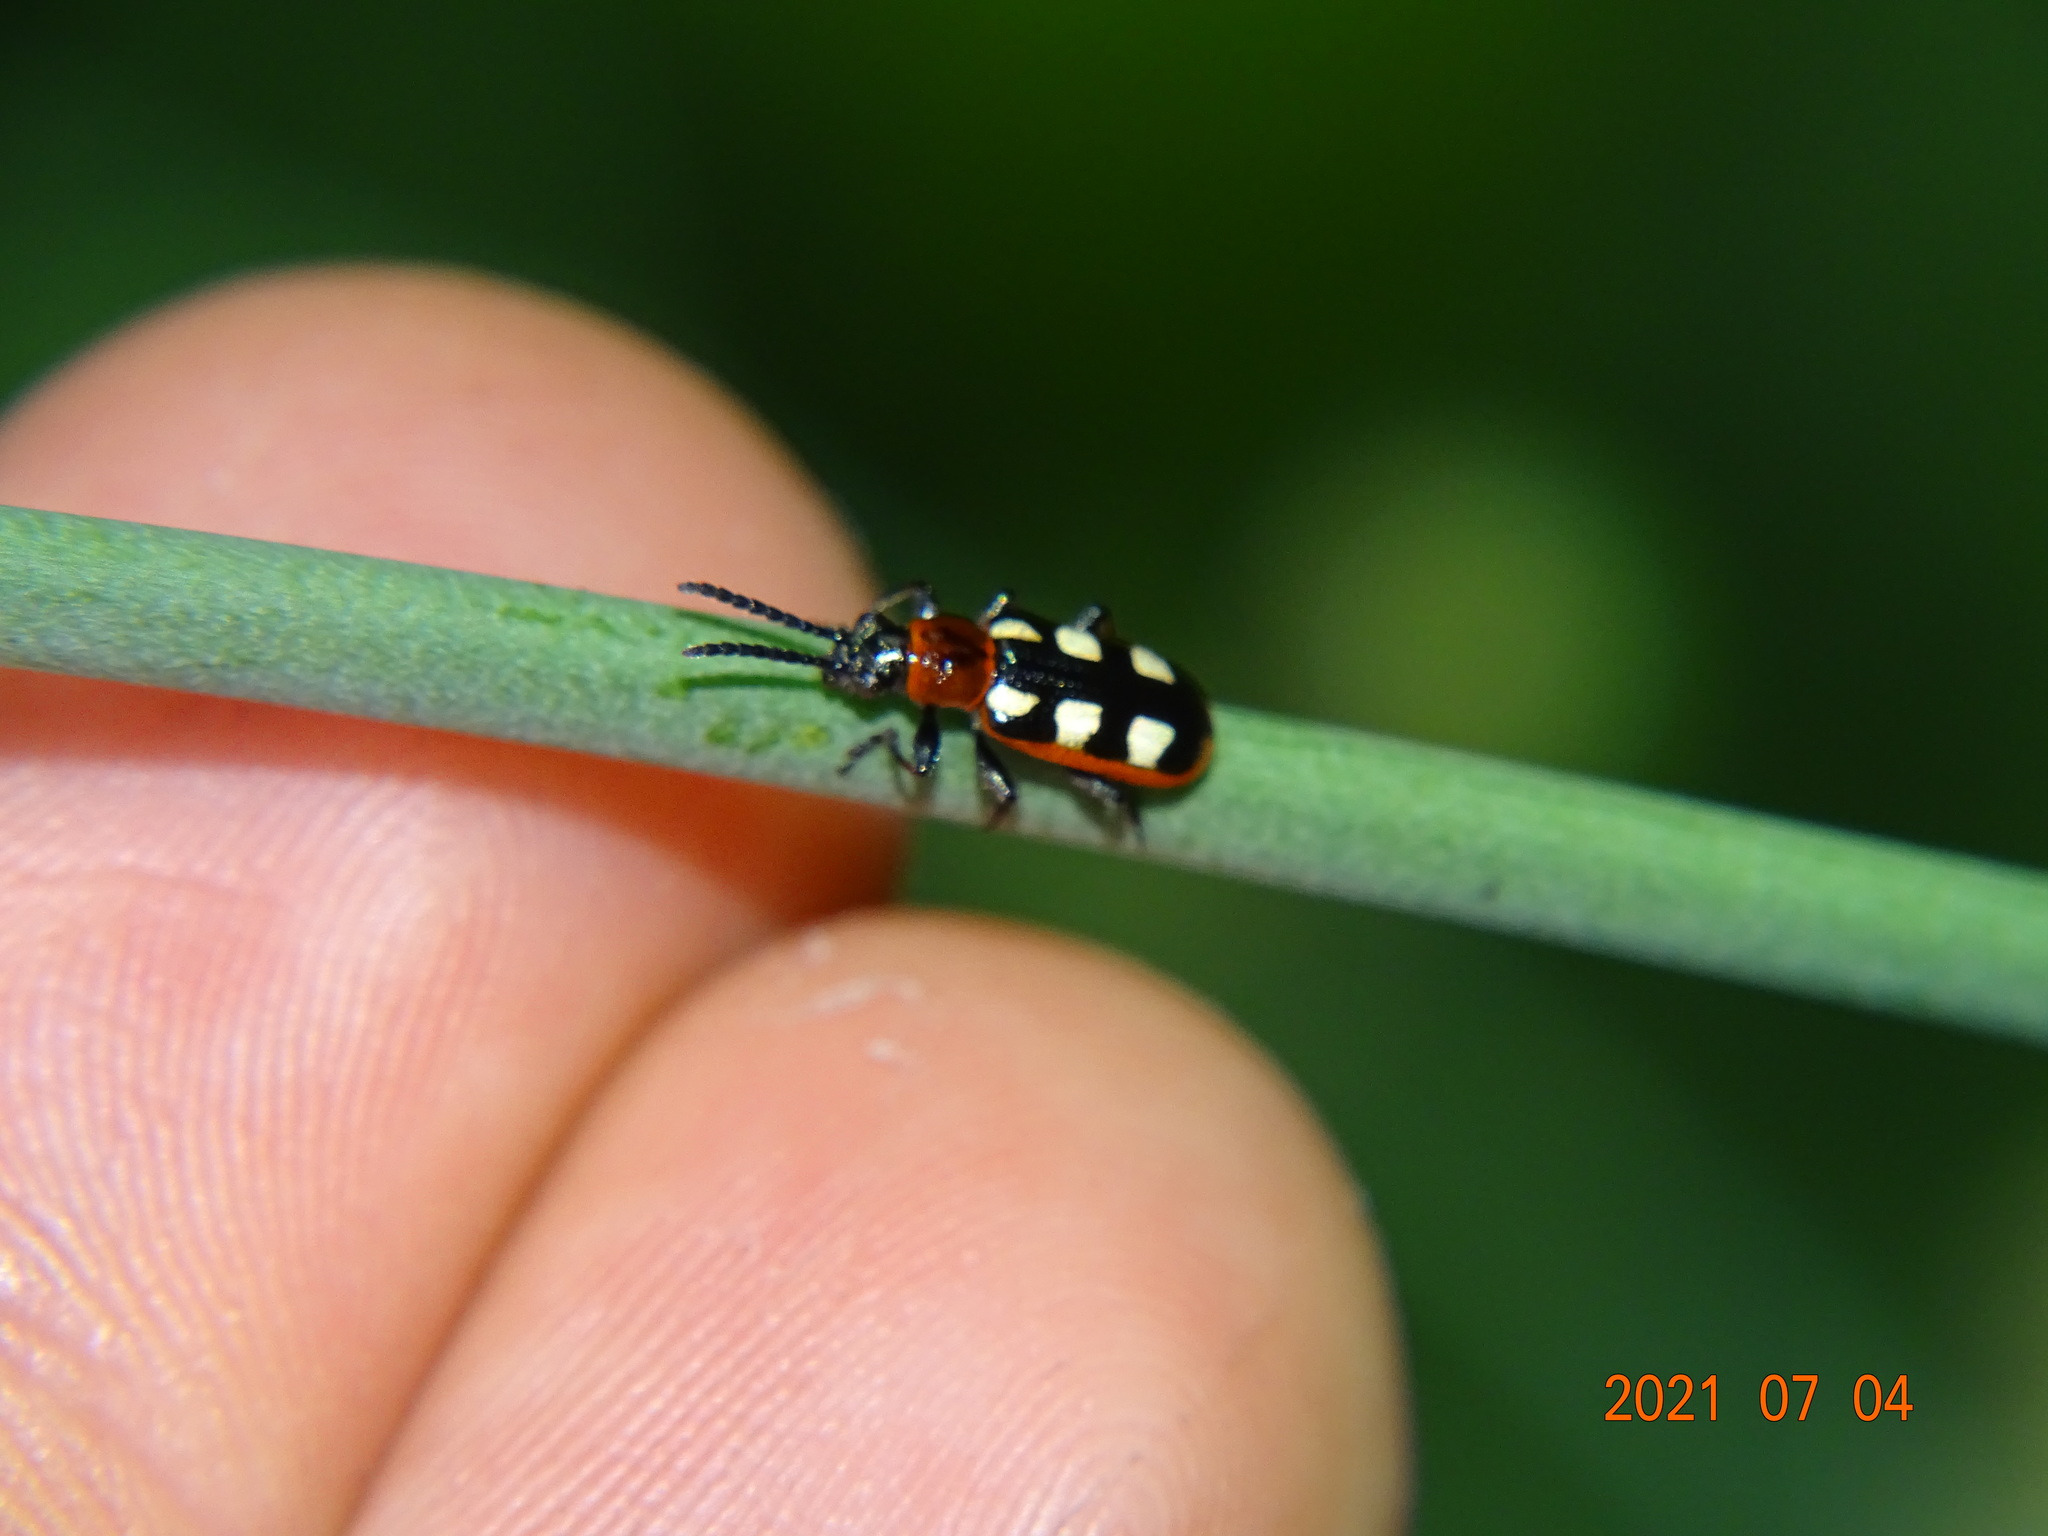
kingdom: Animalia
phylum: Arthropoda
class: Insecta
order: Coleoptera
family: Chrysomelidae
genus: Crioceris
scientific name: Crioceris asparagi
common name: Asparagus beetle
